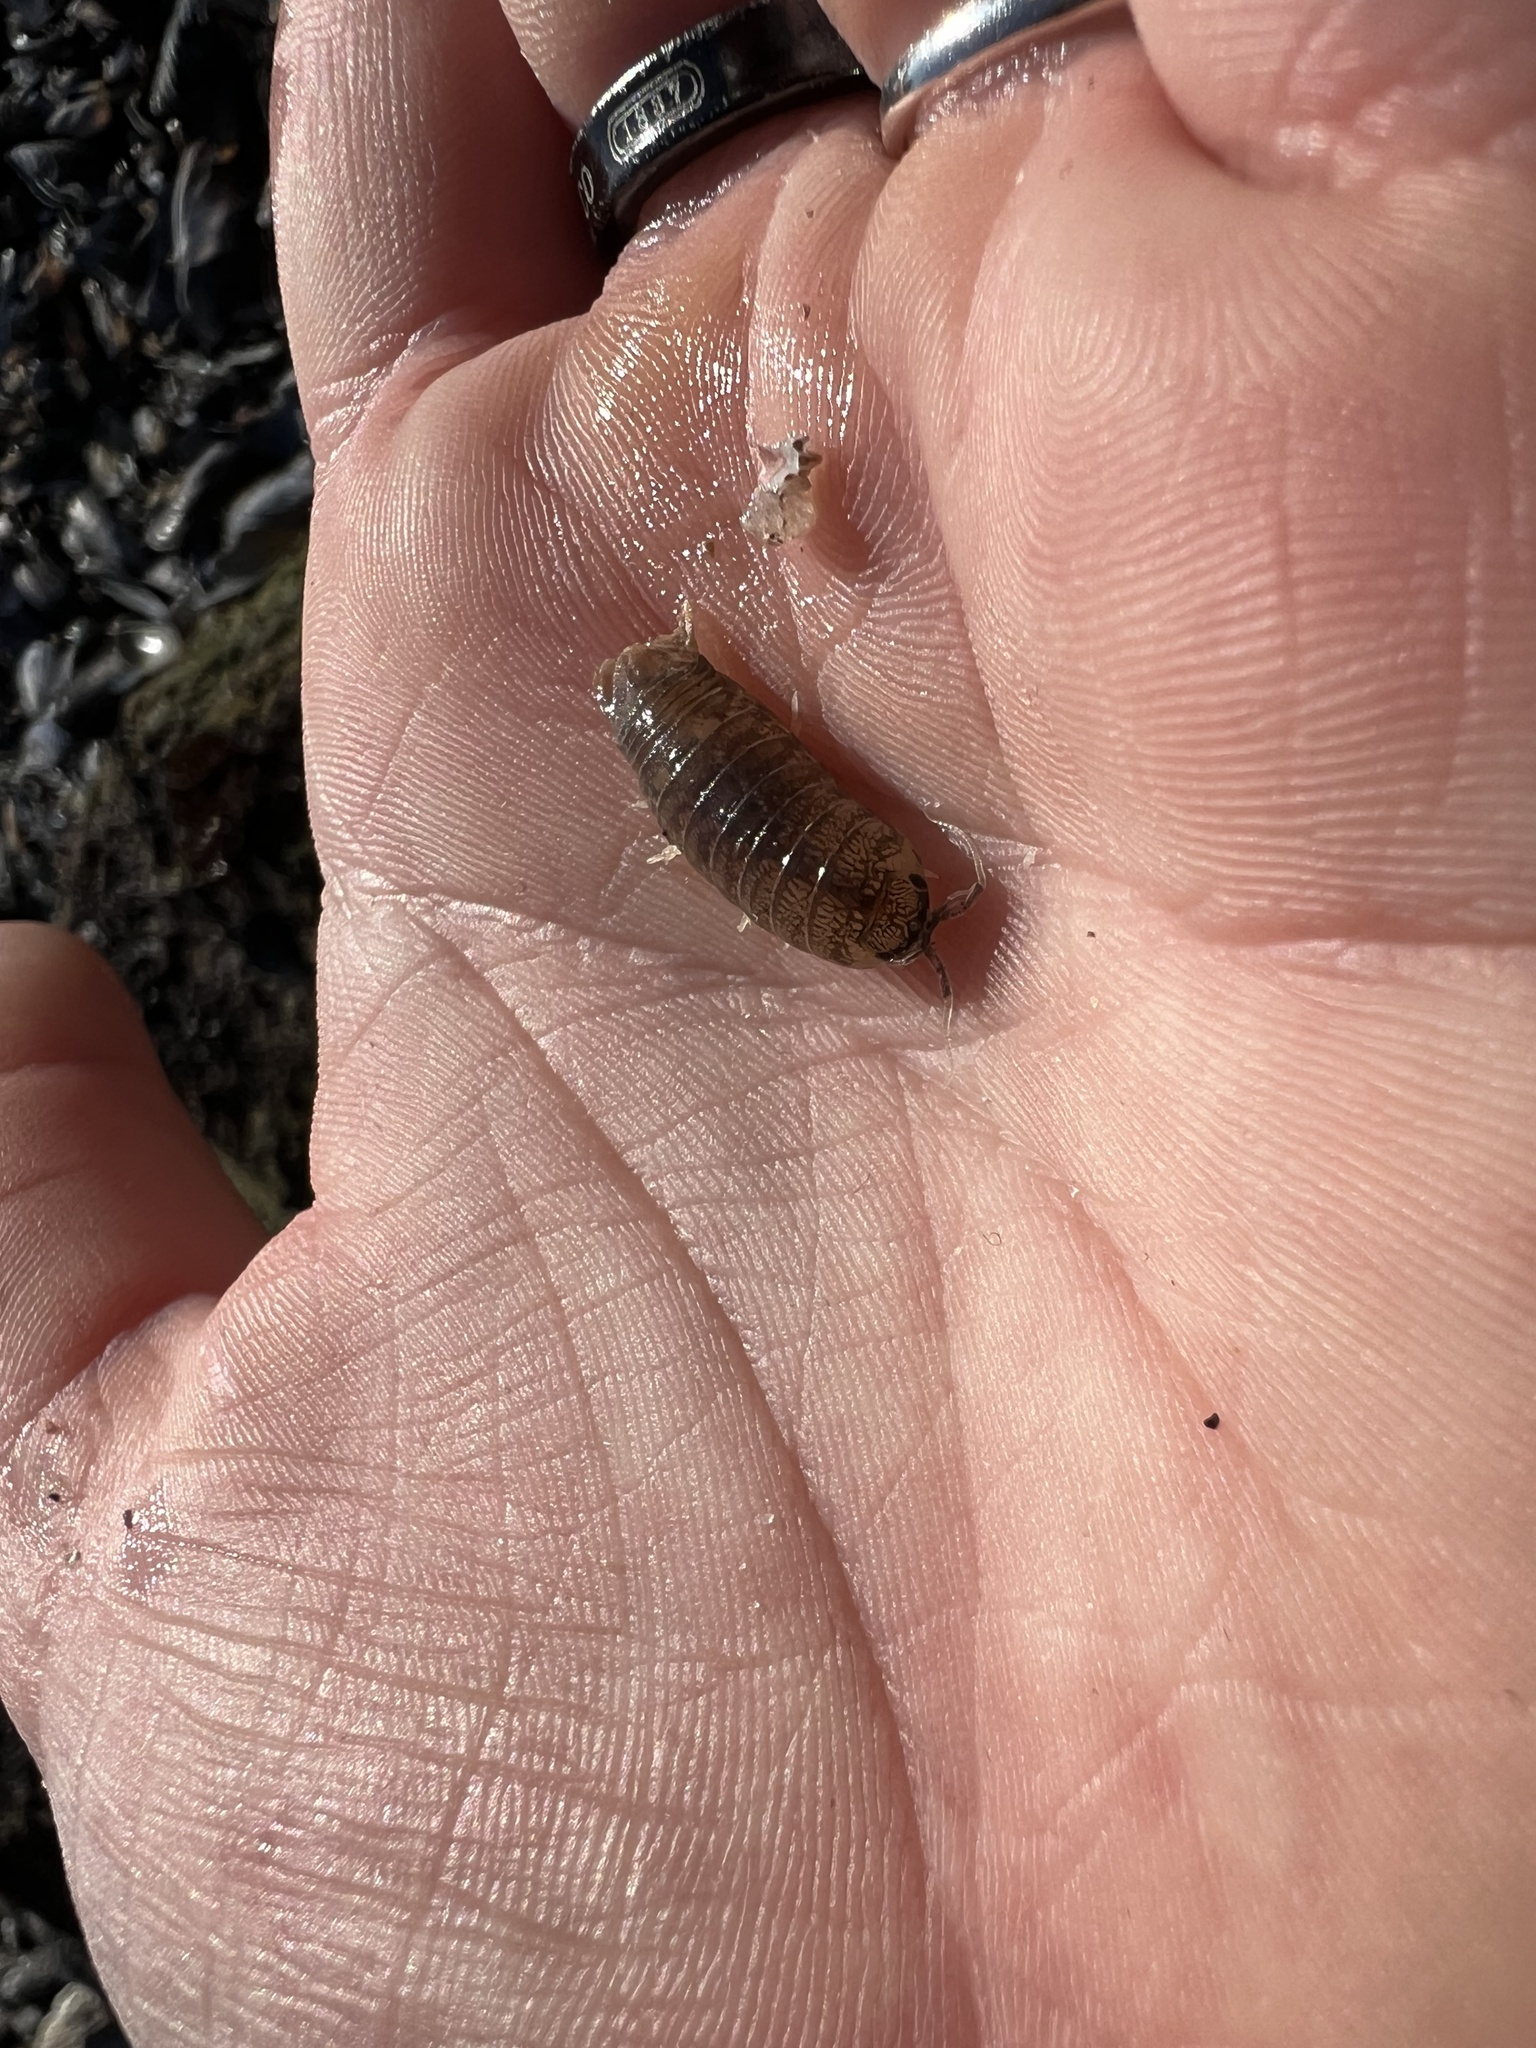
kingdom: Animalia
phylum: Arthropoda
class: Malacostraca
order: Isopoda
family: Cirolanidae
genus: Cirolana
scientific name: Cirolana harfordi
